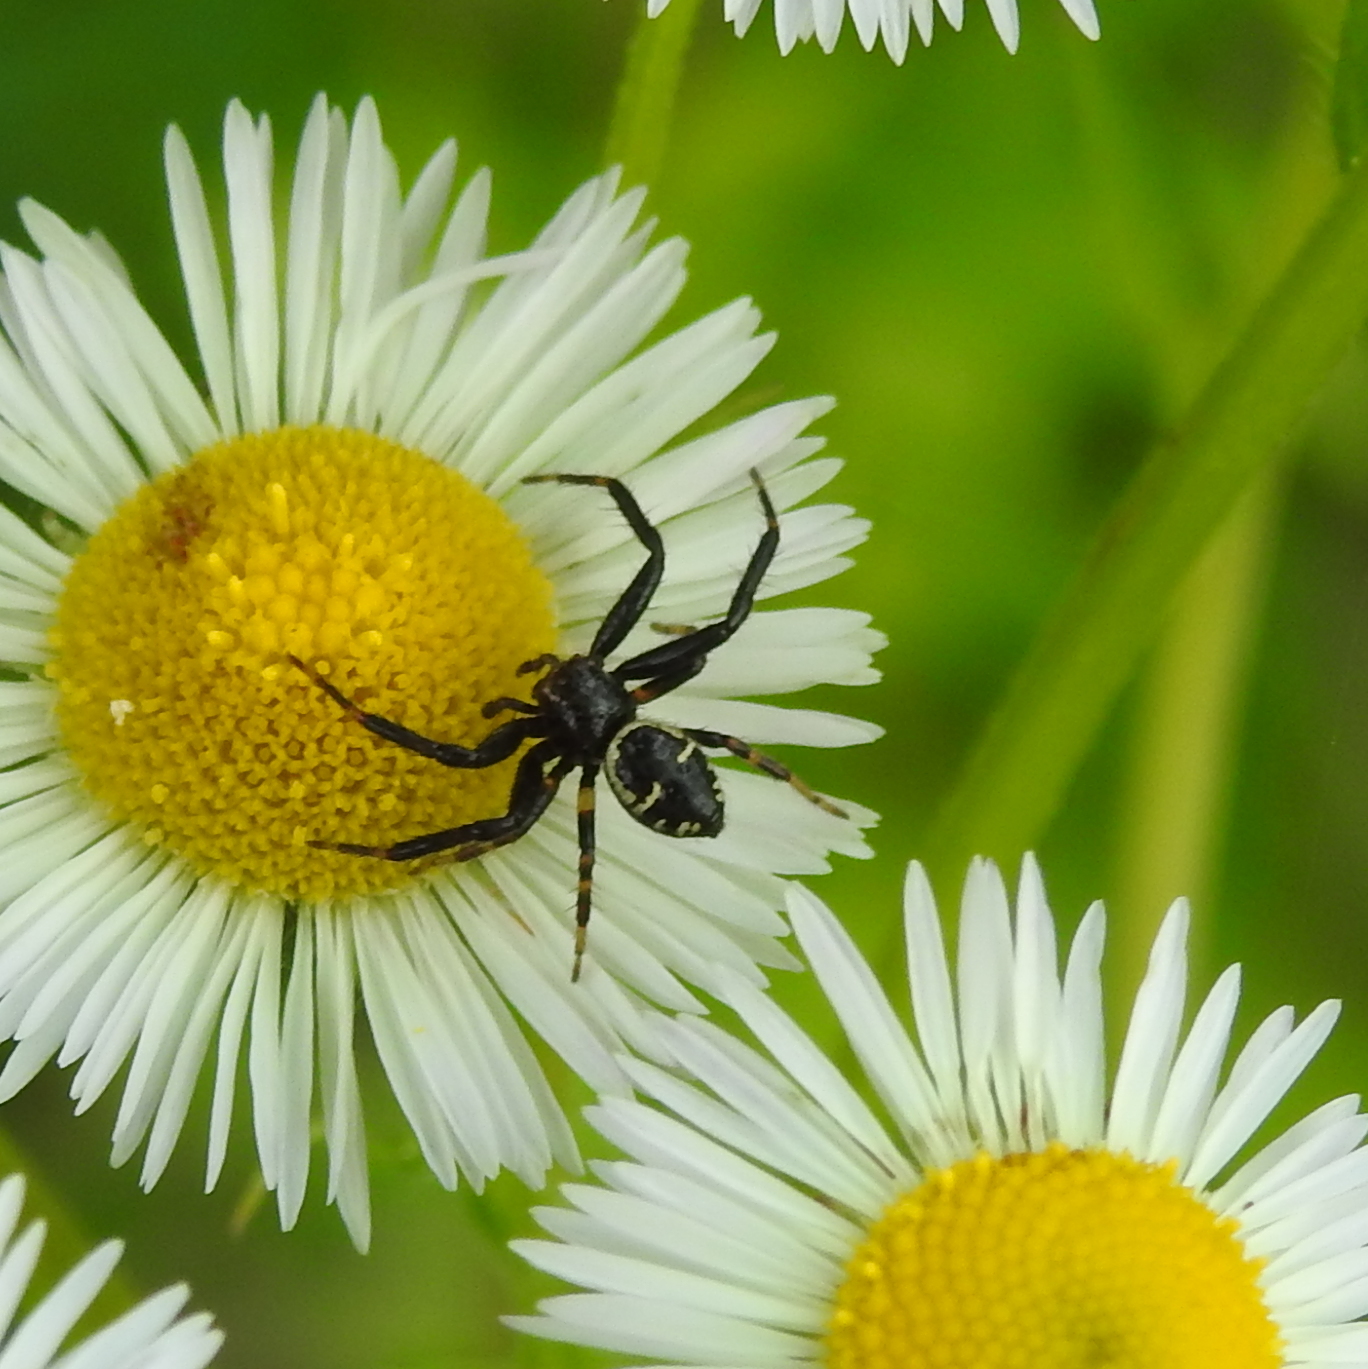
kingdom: Animalia
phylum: Arthropoda
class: Arachnida
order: Araneae
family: Thomisidae
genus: Synema
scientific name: Synema globosum
